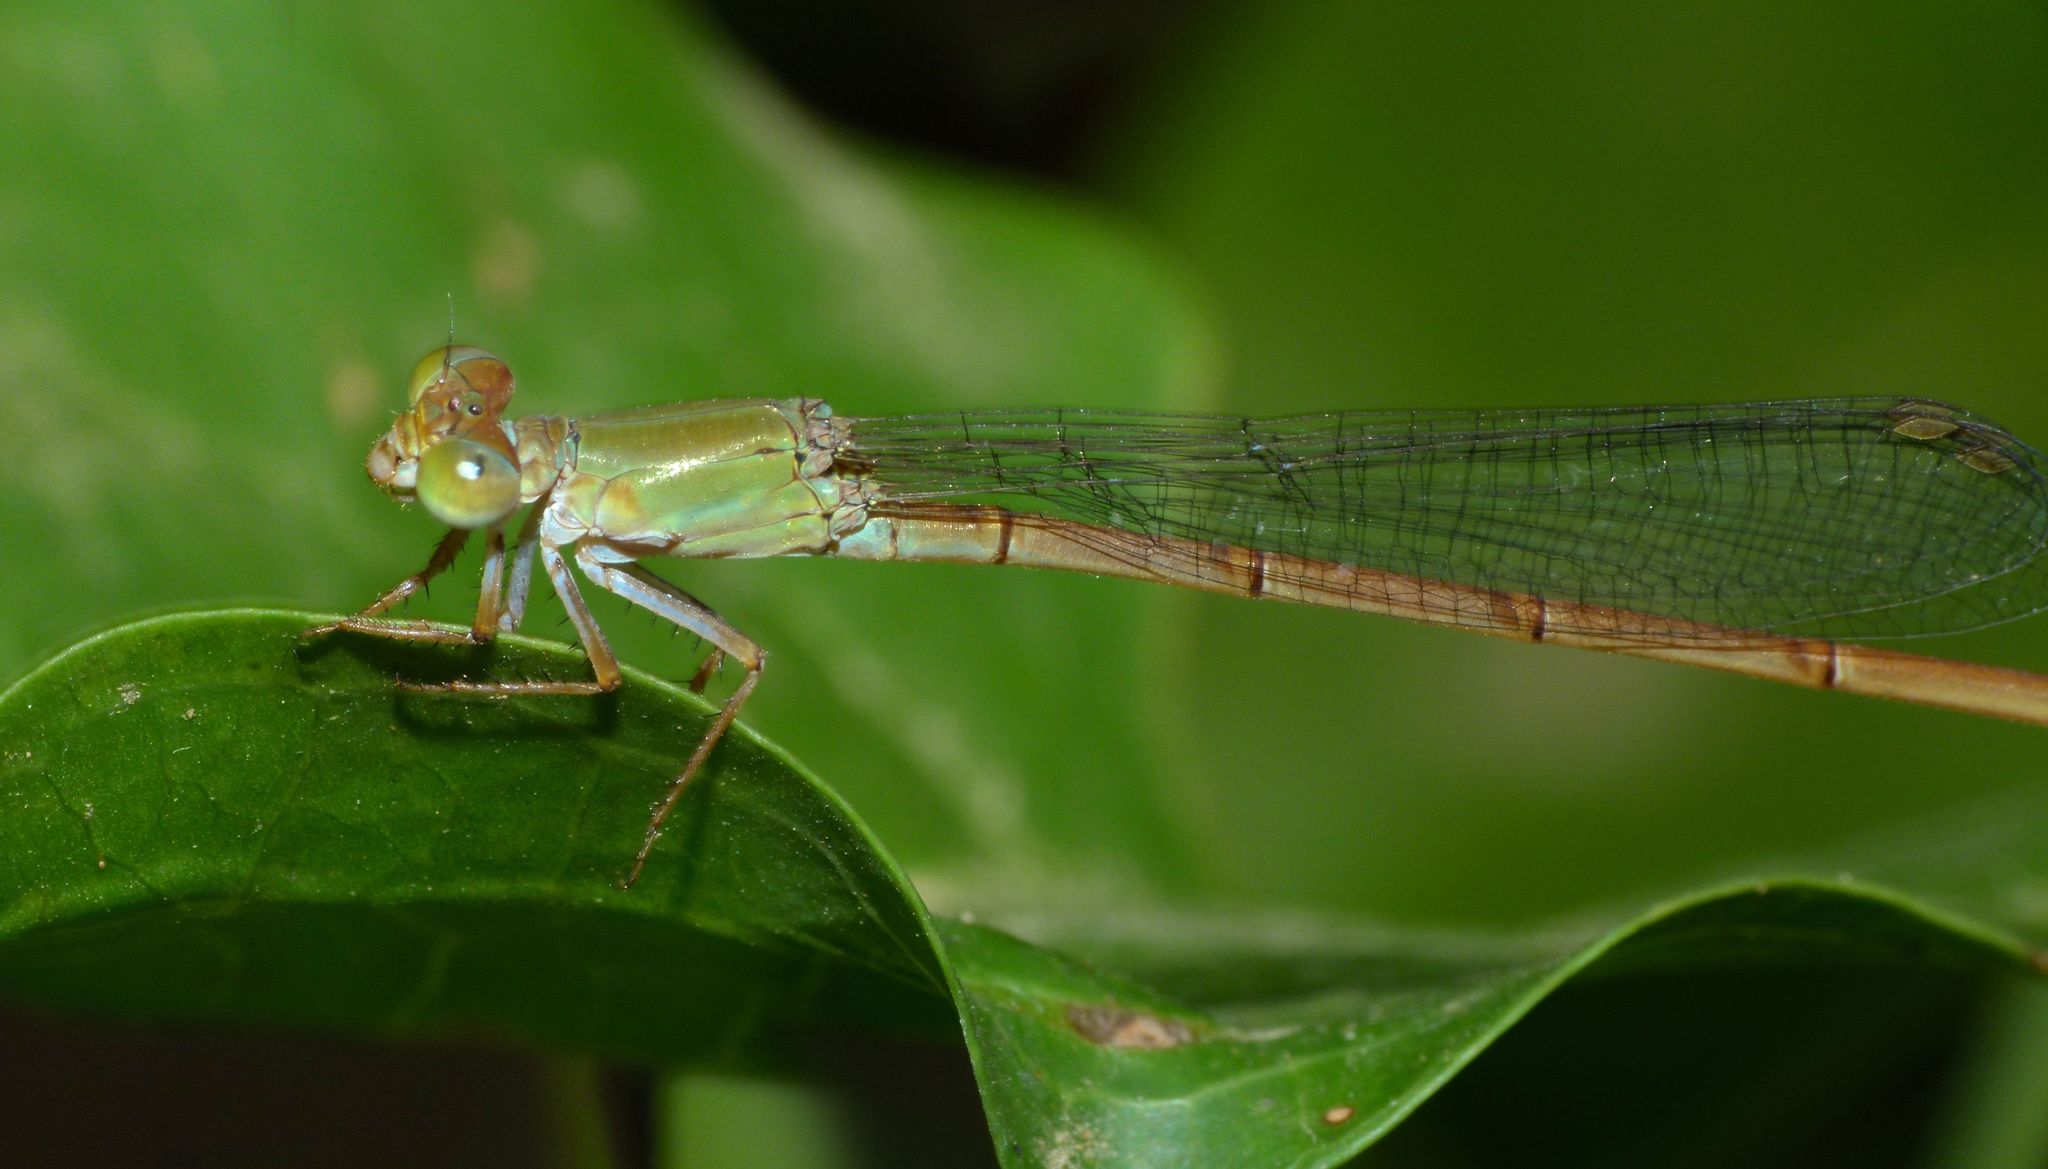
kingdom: Animalia
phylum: Arthropoda
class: Insecta
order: Odonata
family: Coenagrionidae
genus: Ceriagrion
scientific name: Ceriagrion aeruginosum
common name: Redtail
